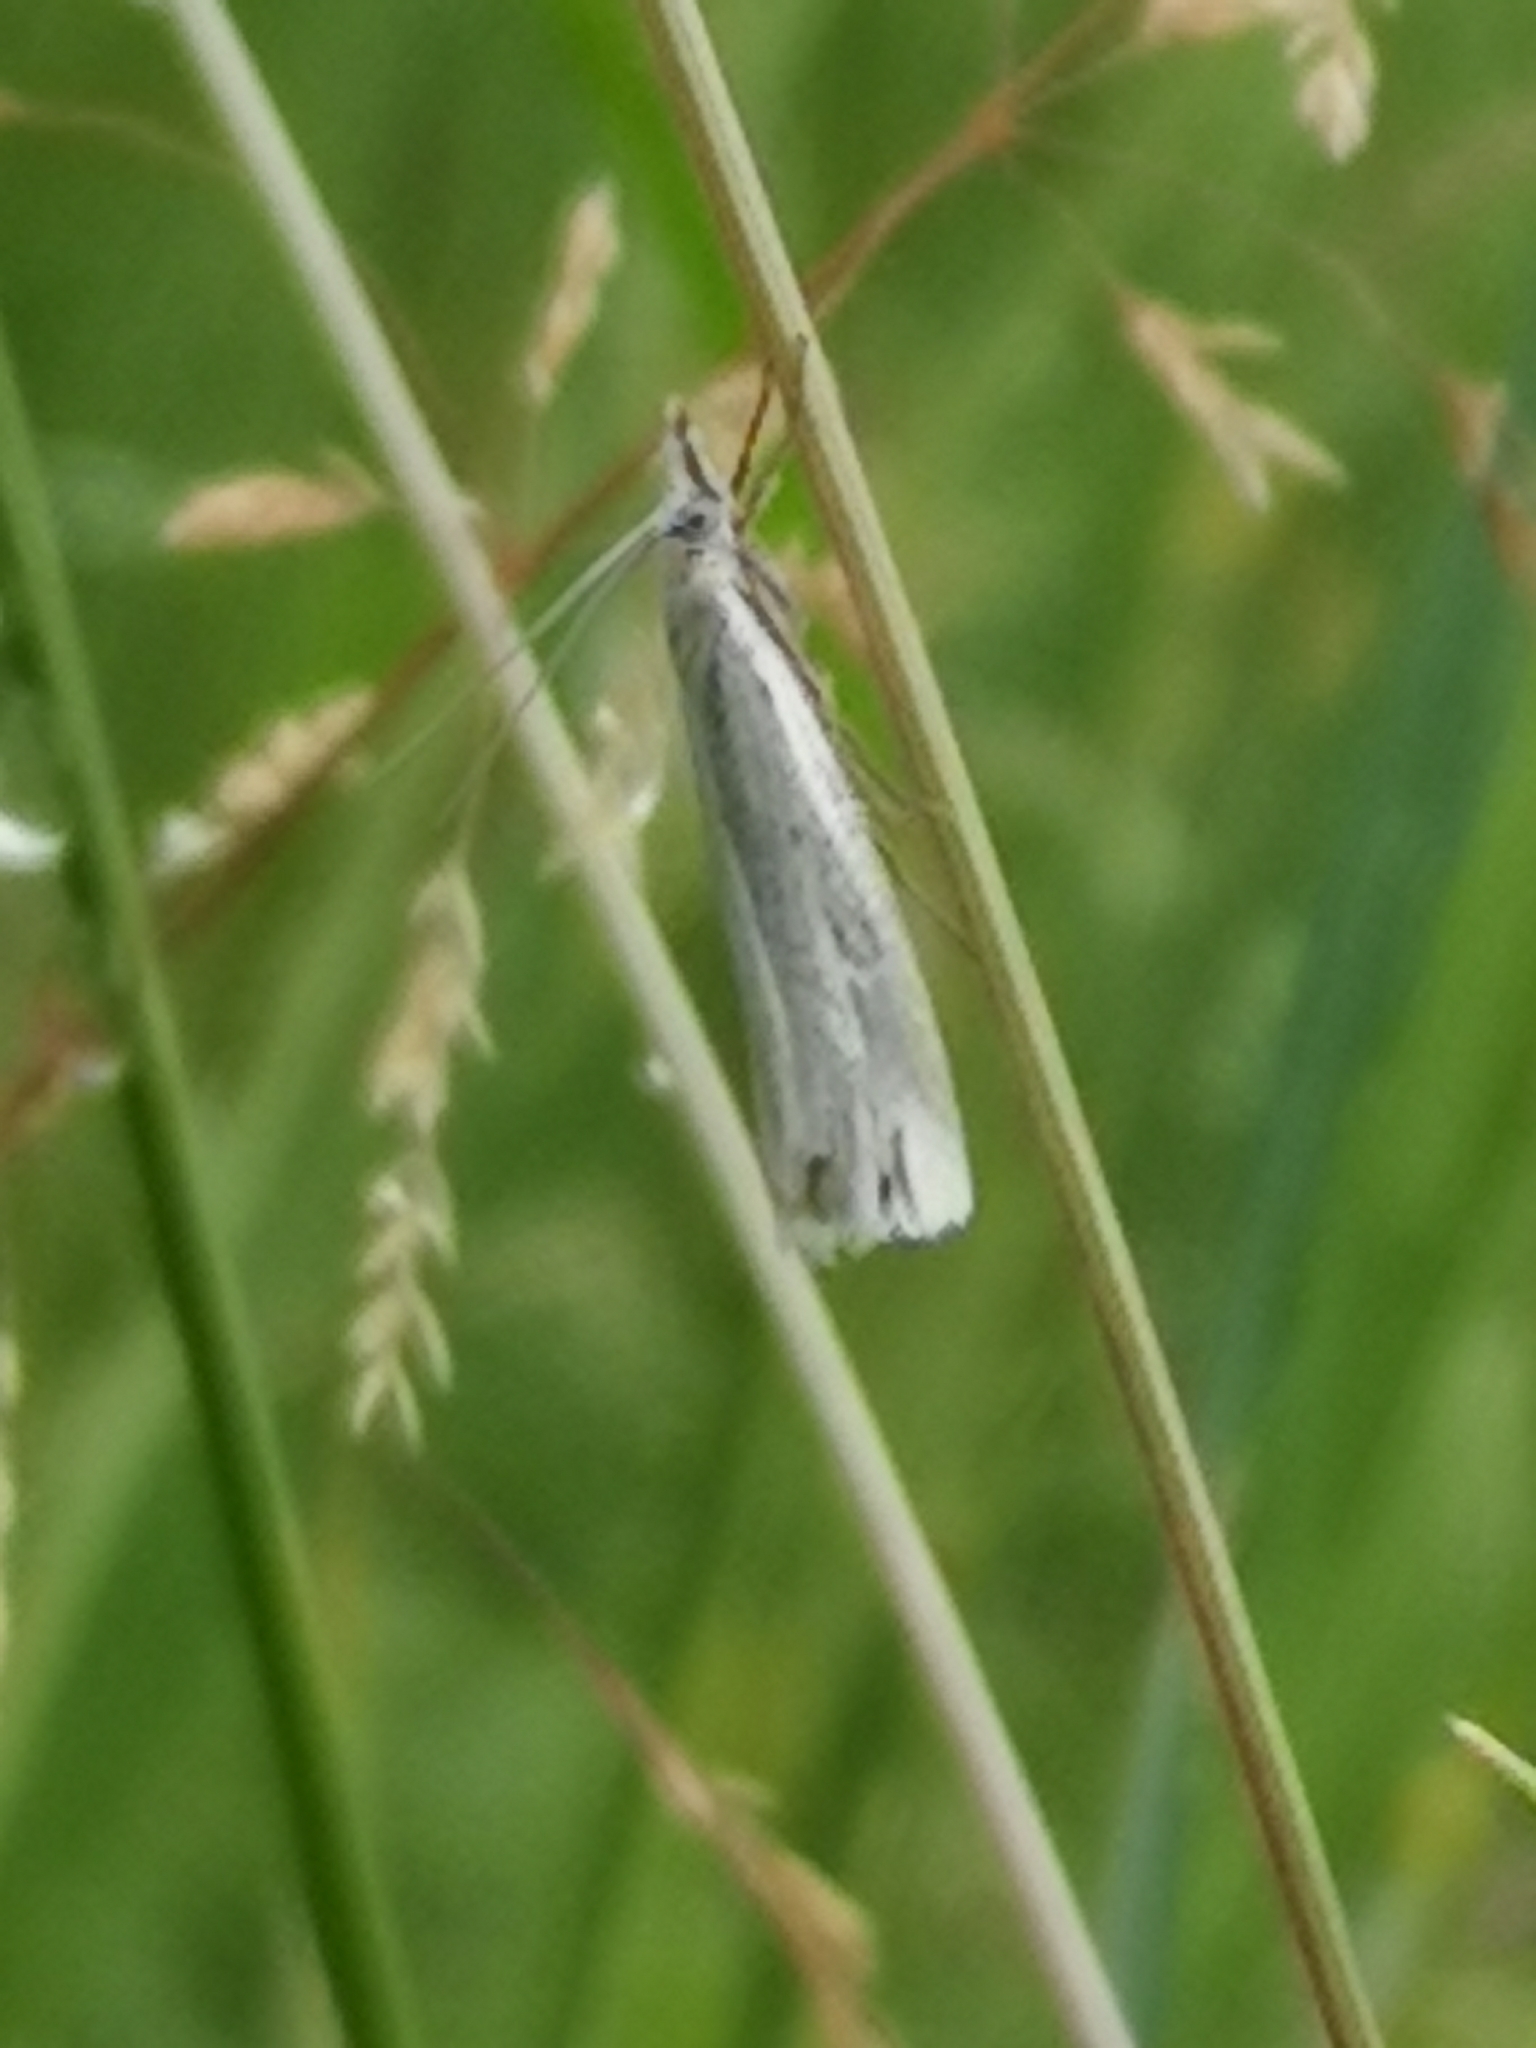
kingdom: Animalia
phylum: Arthropoda
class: Insecta
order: Lepidoptera
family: Crambidae
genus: Crambus
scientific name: Crambus perlellus
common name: Yellow satin veneer
